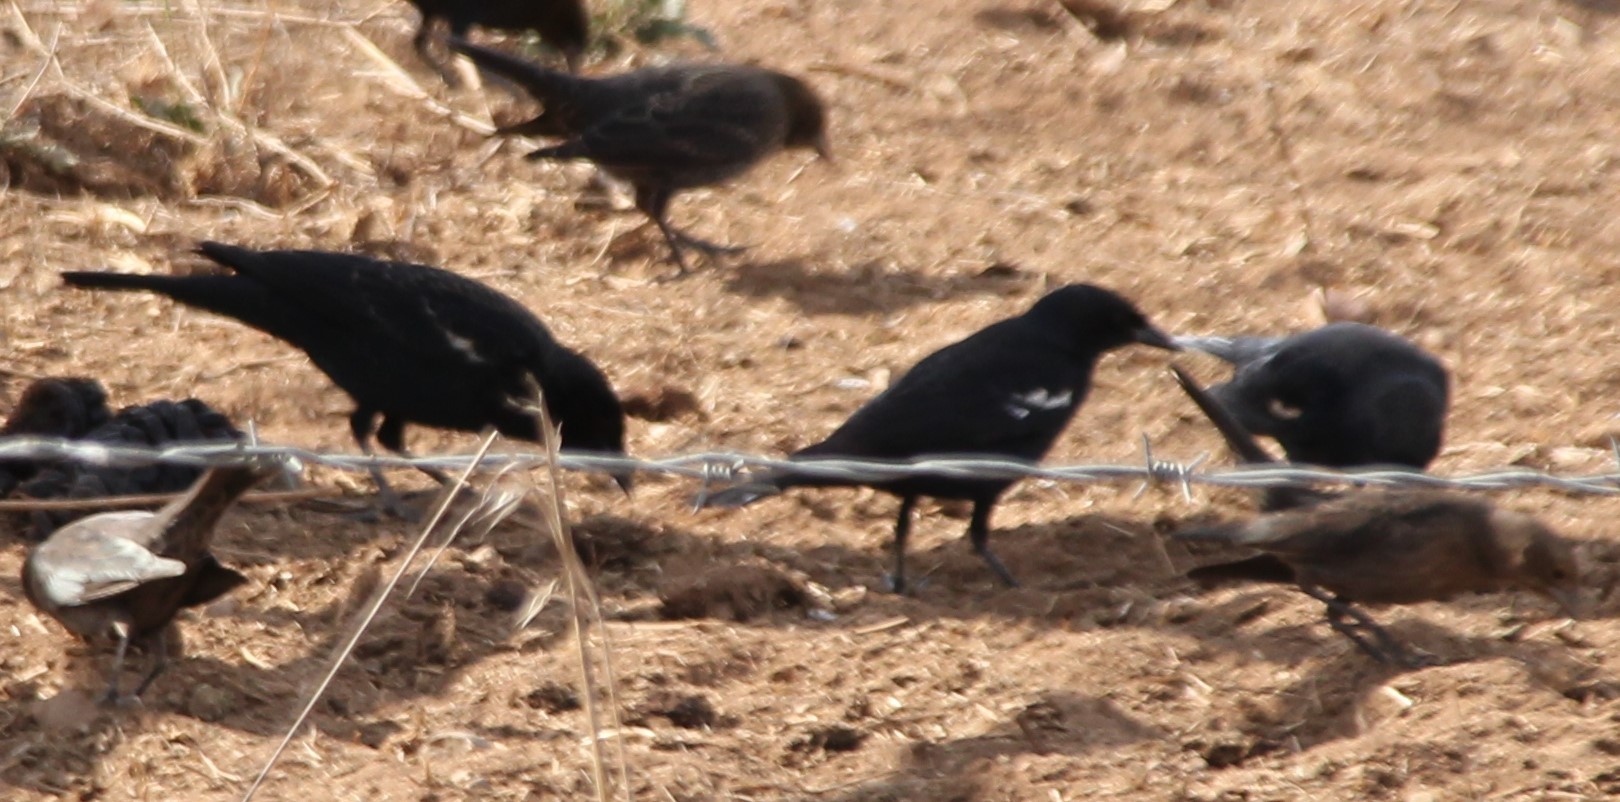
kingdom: Animalia
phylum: Chordata
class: Aves
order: Passeriformes
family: Icteridae
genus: Agelaius
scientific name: Agelaius tricolor
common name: Tricolored blackbird
